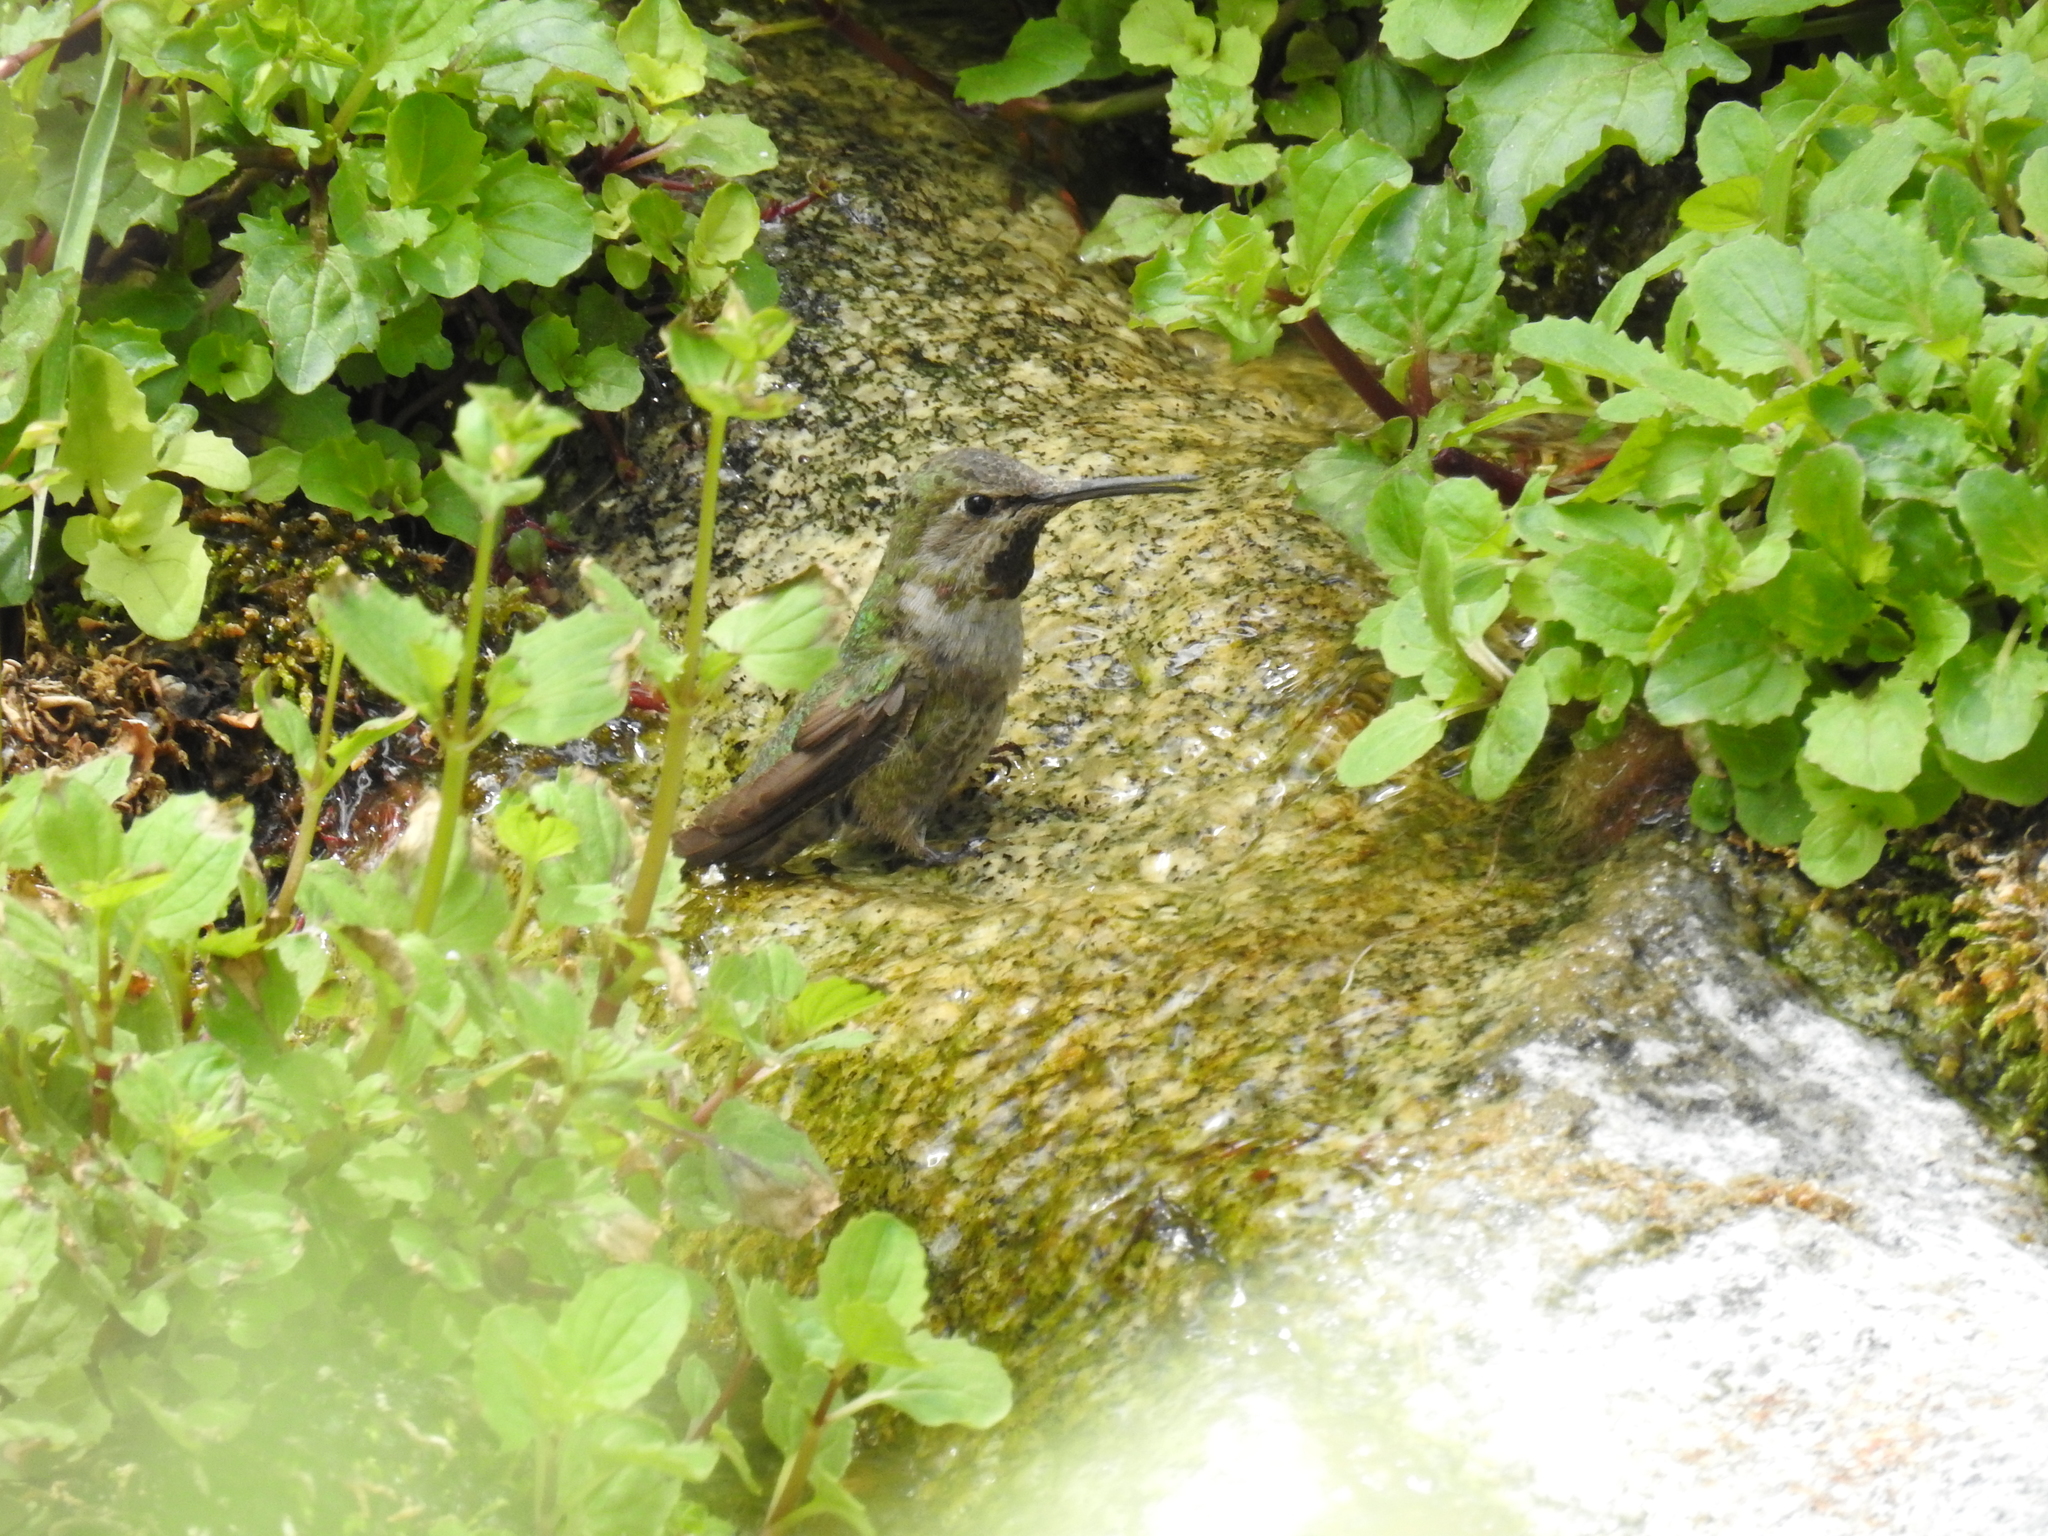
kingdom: Animalia
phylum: Chordata
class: Aves
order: Apodiformes
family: Trochilidae
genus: Calypte
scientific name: Calypte anna
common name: Anna's hummingbird
